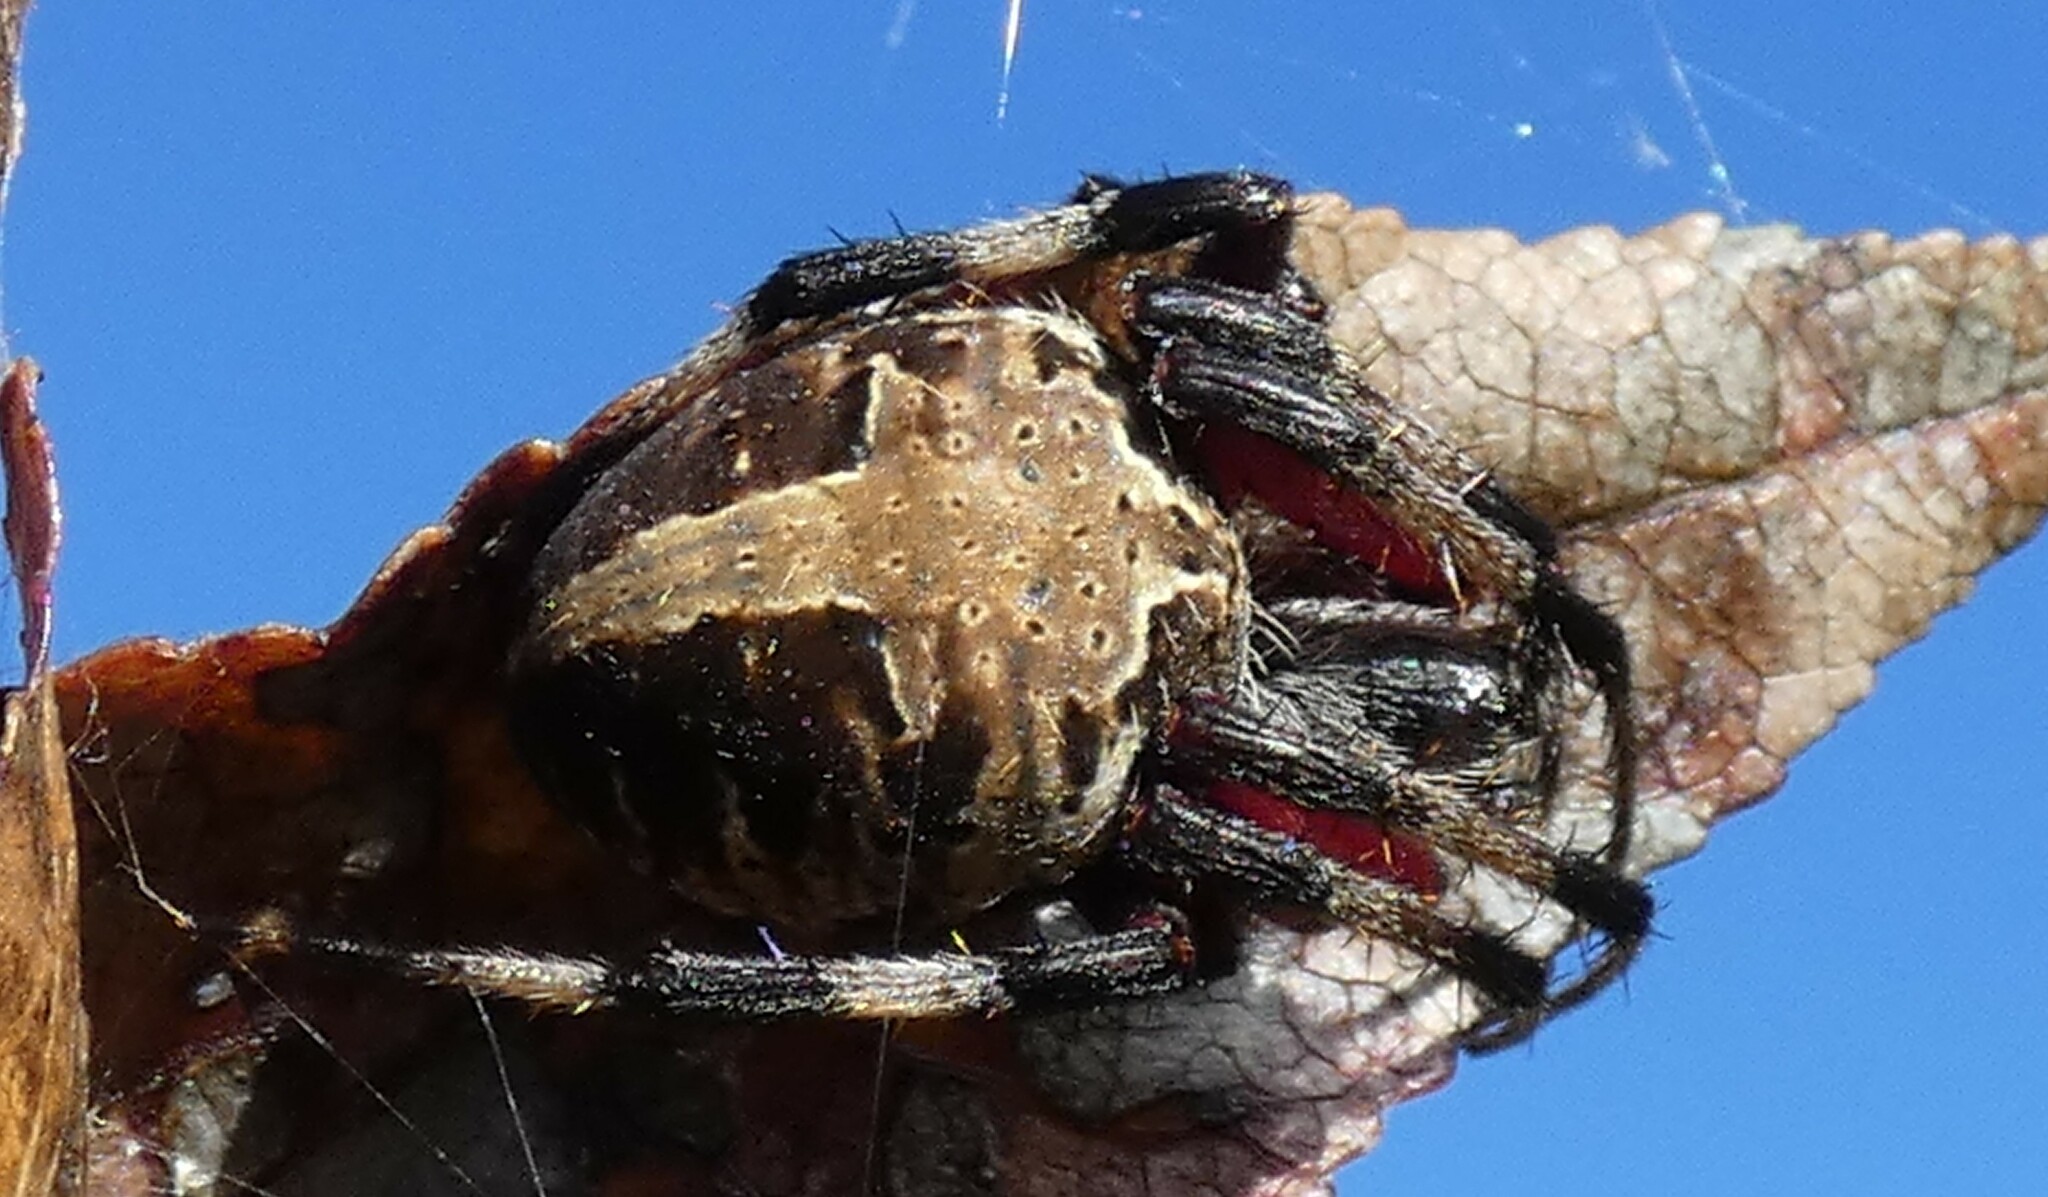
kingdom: Animalia
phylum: Arthropoda
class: Arachnida
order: Araneae
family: Araneidae
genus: Neoscona
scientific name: Neoscona domiciliorum
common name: Red-femured spotted orbweaver
